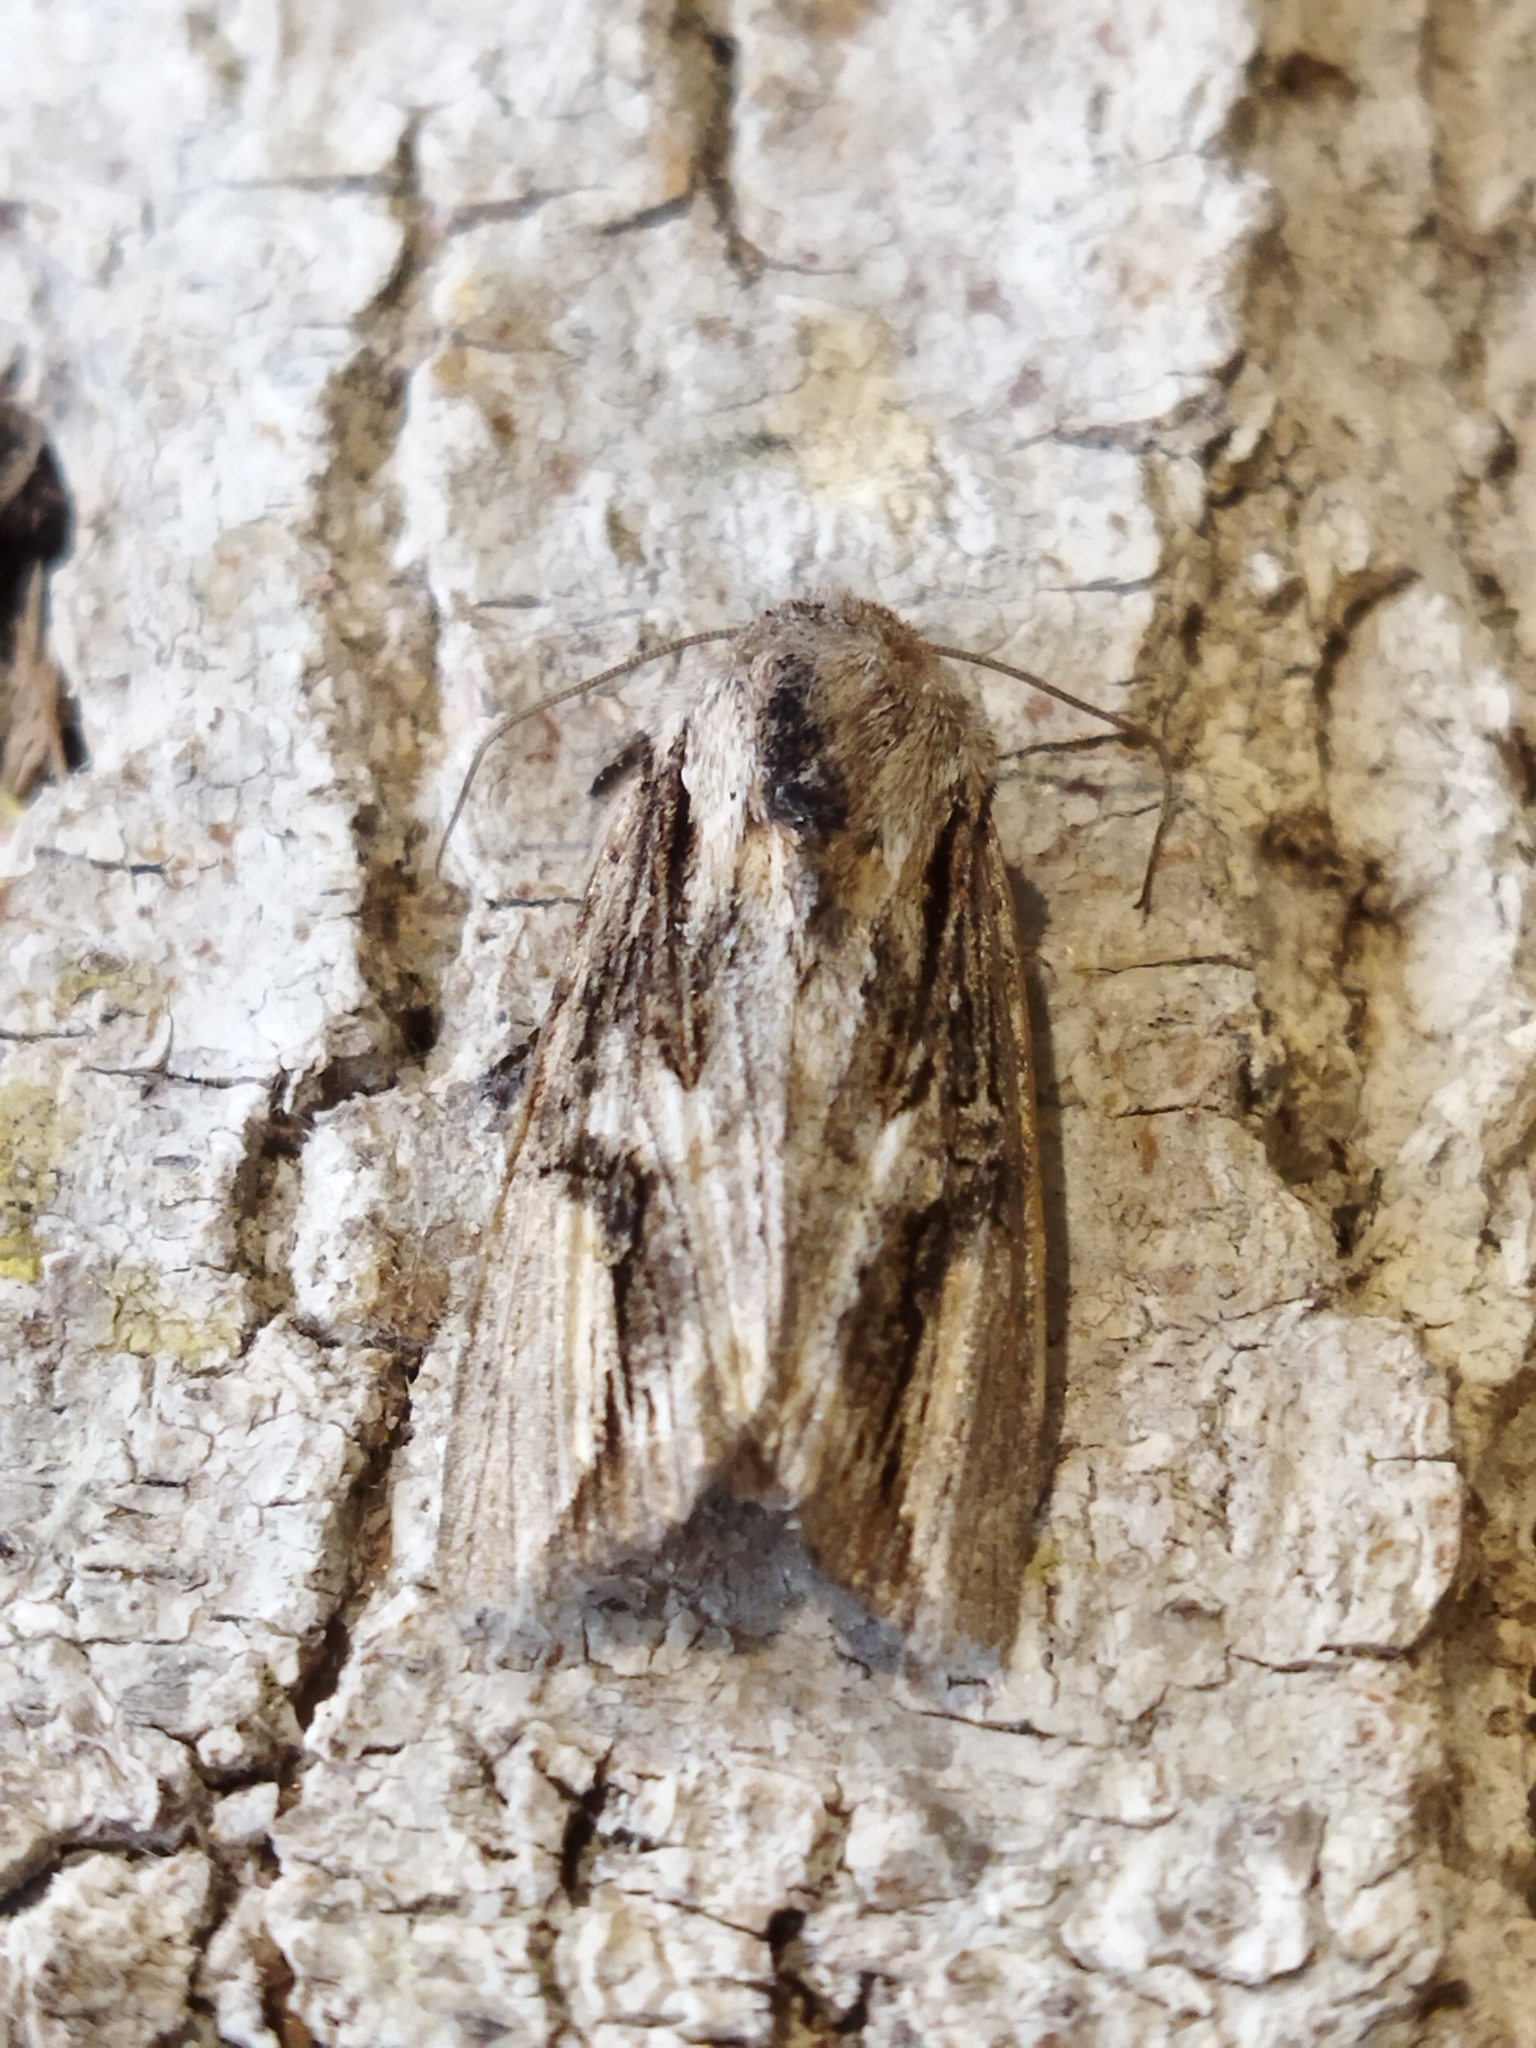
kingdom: Animalia
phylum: Arthropoda
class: Insecta
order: Lepidoptera
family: Noctuidae
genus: Egira
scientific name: Egira conspicillaris
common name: Silver cloud
